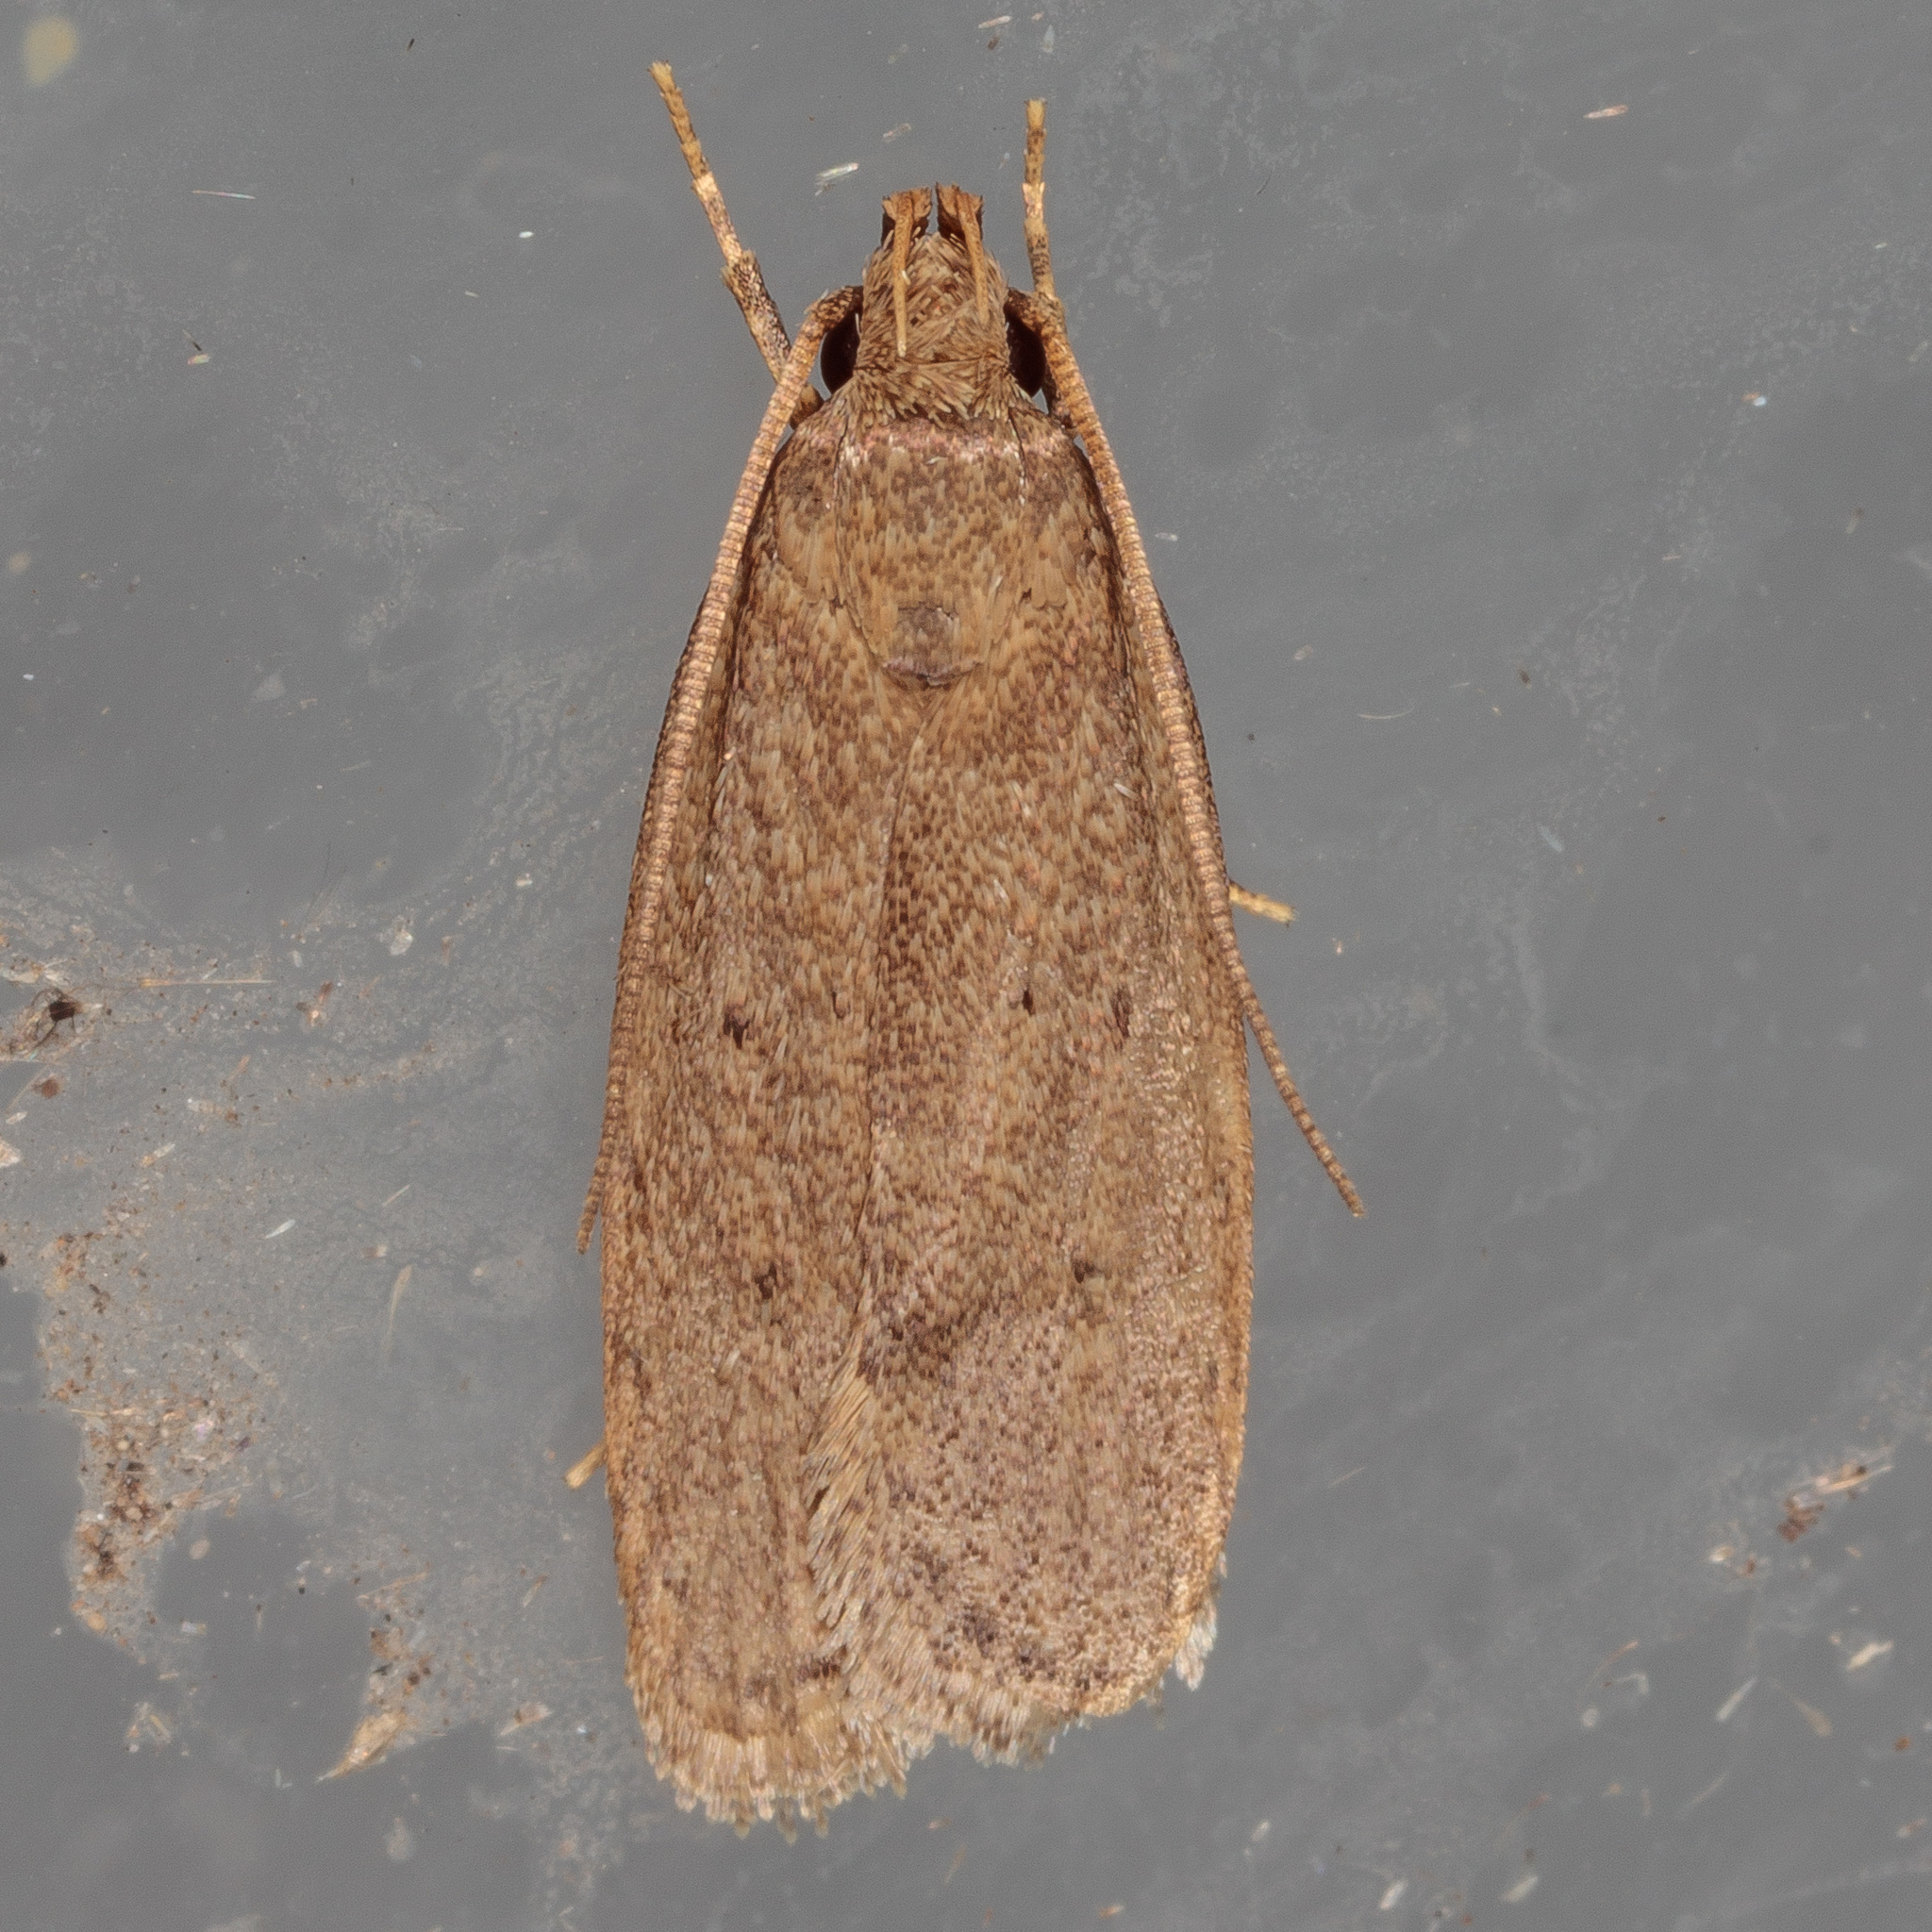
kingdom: Animalia
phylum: Arthropoda
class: Insecta
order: Lepidoptera
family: Autostichidae
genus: Autosticha
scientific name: Autosticha kyotensis
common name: Kyoto moth
